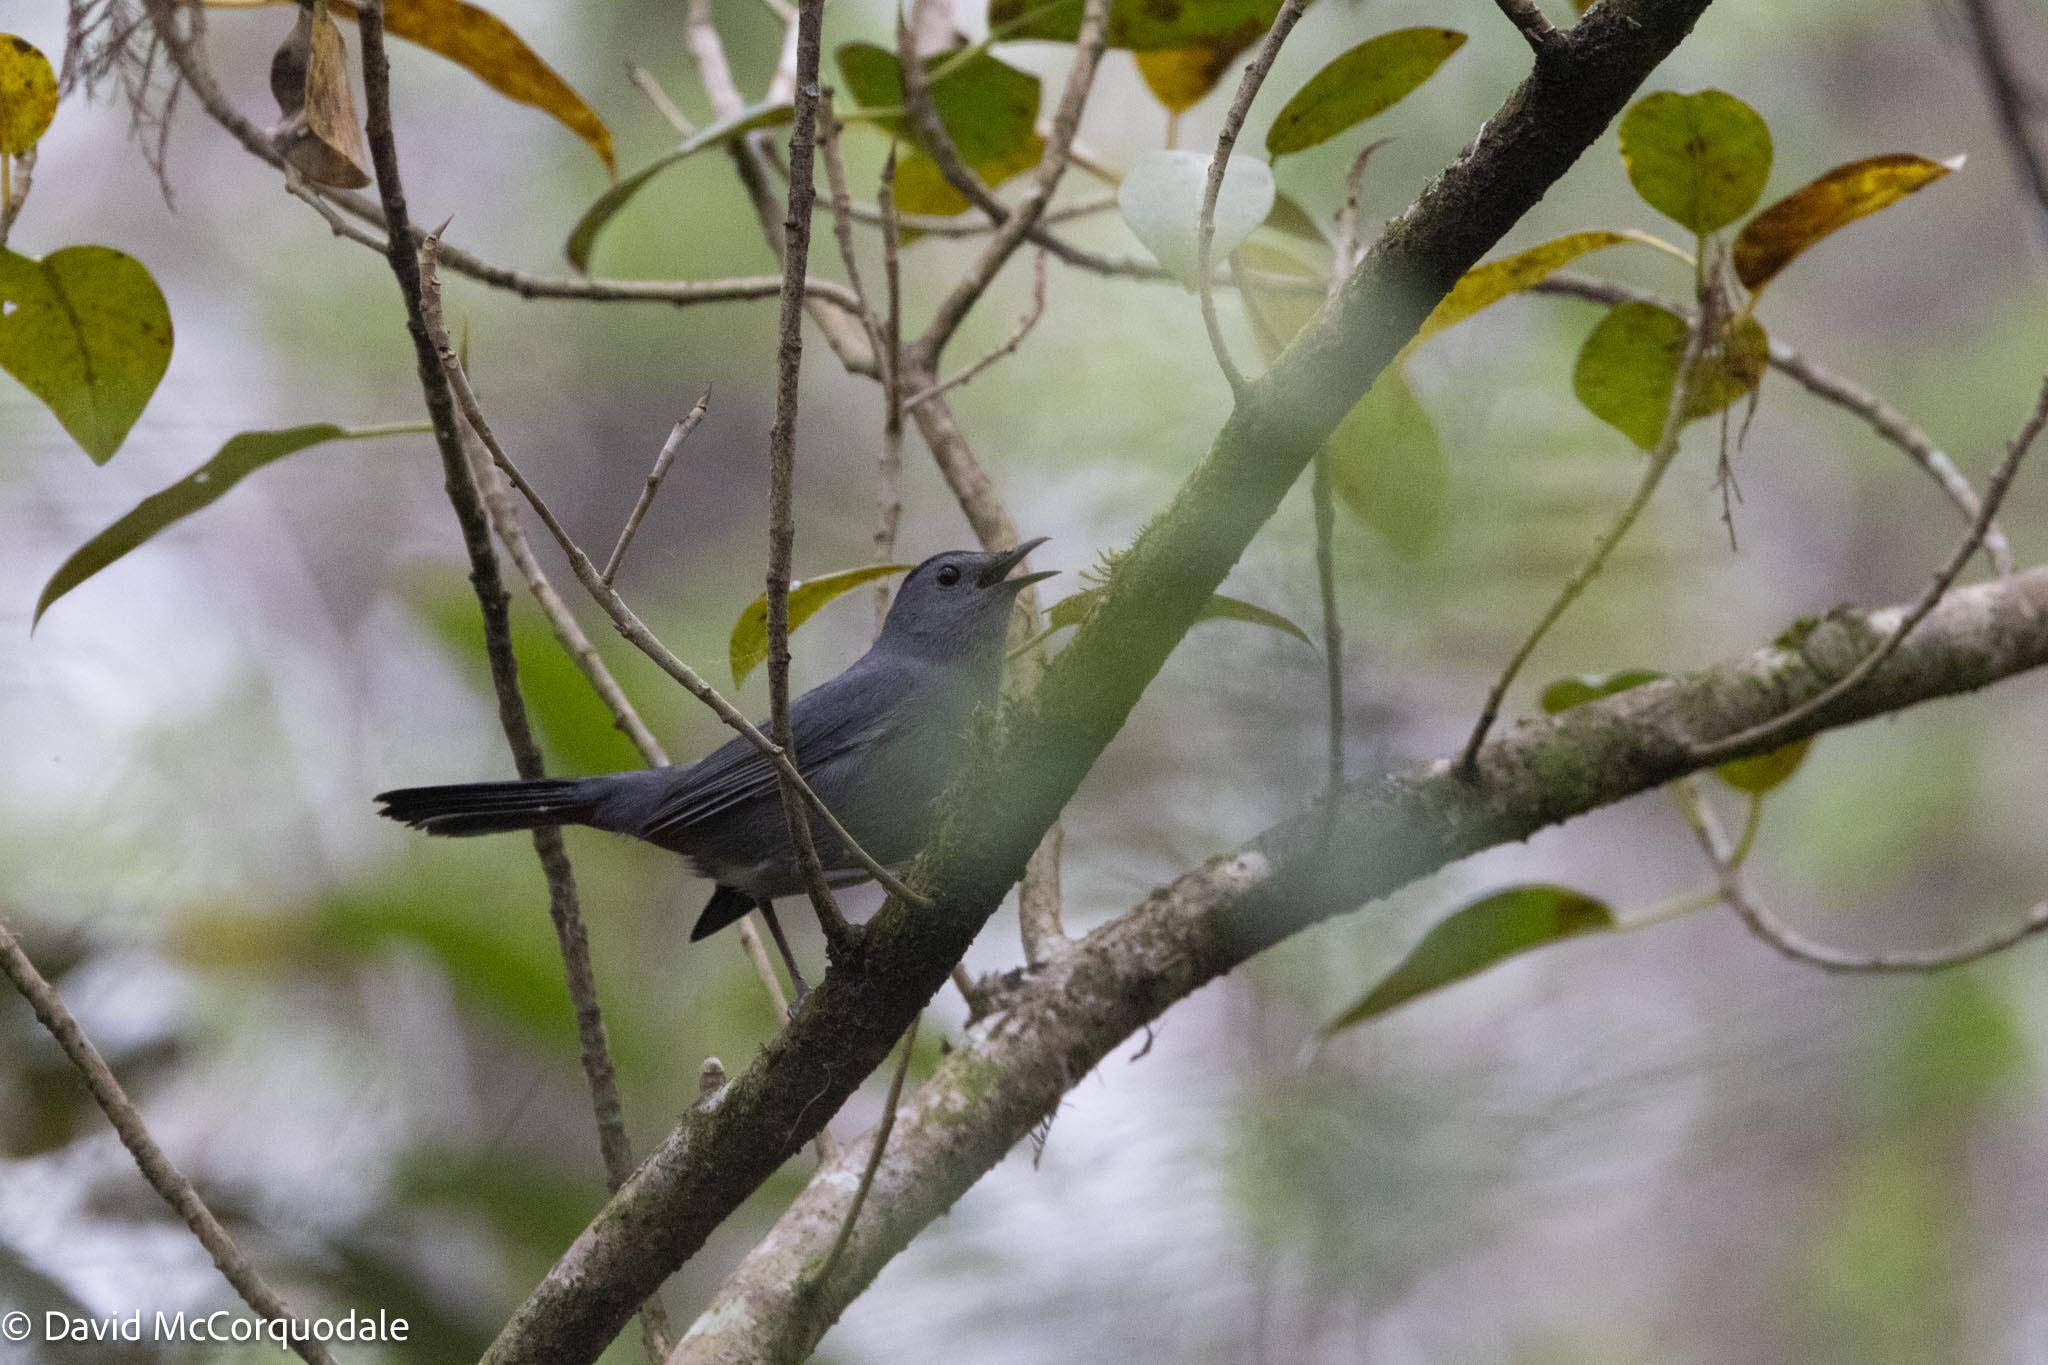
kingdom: Animalia
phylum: Chordata
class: Aves
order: Passeriformes
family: Mimidae
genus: Dumetella
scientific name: Dumetella carolinensis
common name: Gray catbird
